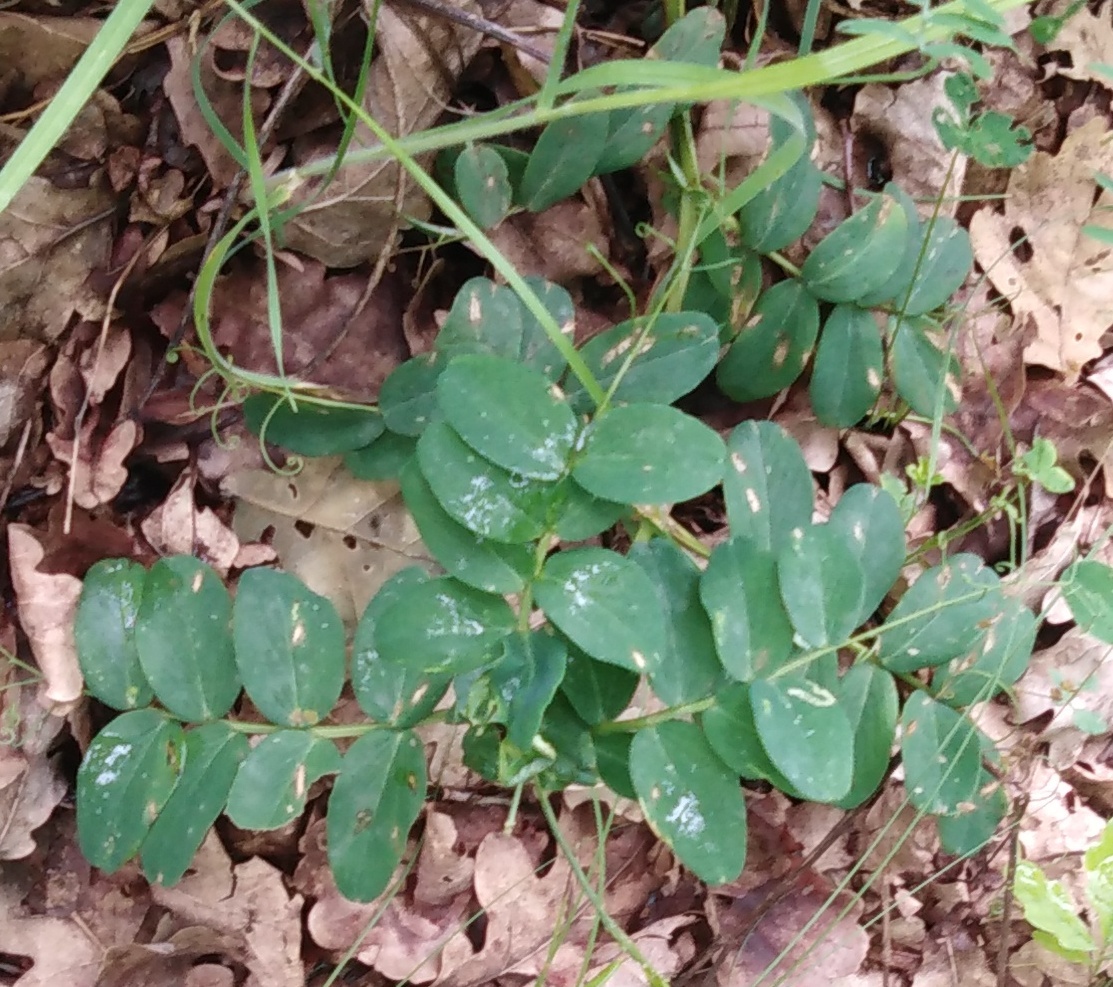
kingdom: Plantae
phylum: Tracheophyta
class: Magnoliopsida
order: Fabales
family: Fabaceae
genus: Lathyrus
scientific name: Lathyrus pisiformis
